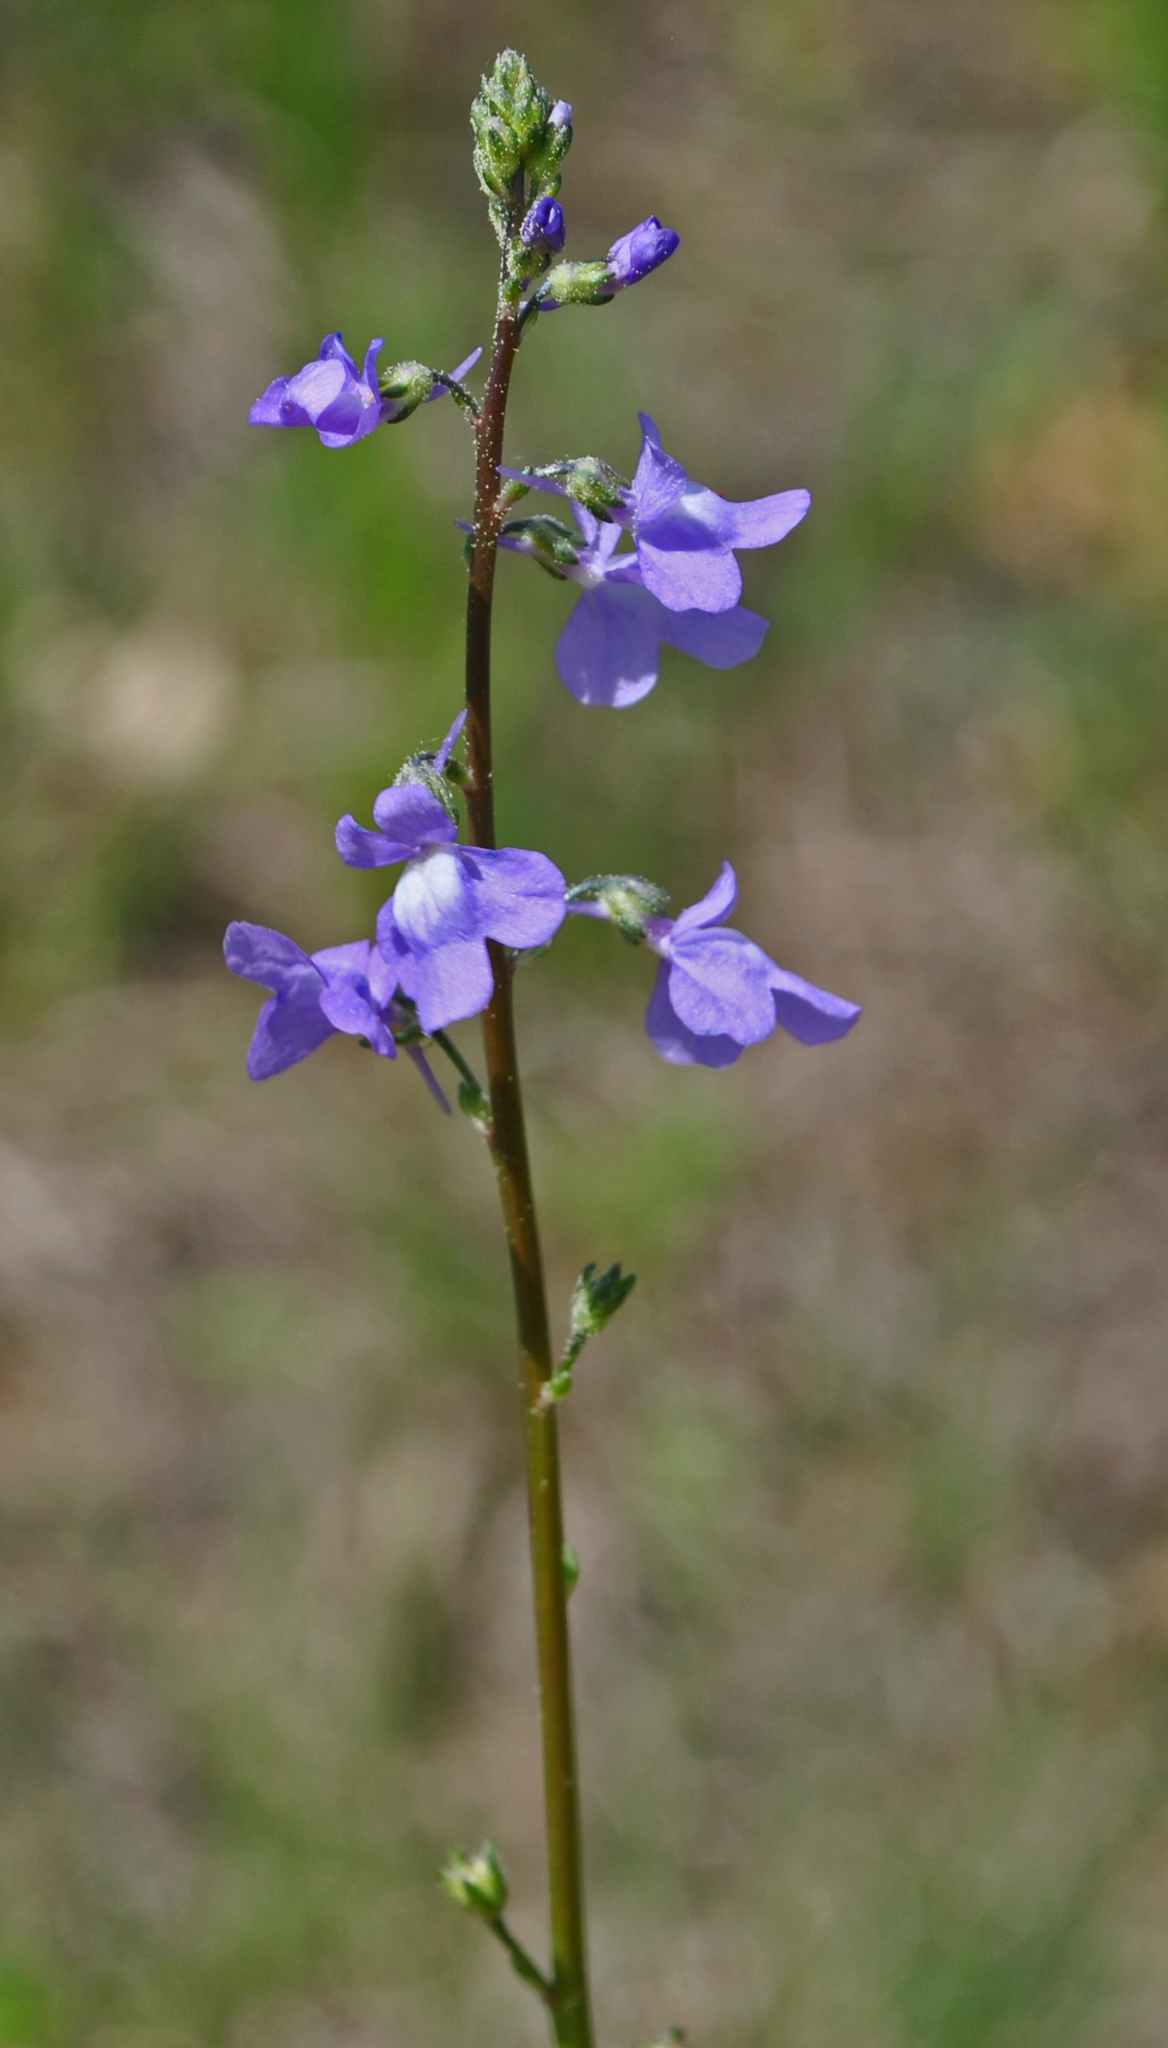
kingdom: Plantae
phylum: Tracheophyta
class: Magnoliopsida
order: Lamiales
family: Plantaginaceae
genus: Nuttallanthus
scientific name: Nuttallanthus canadensis
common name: Blue toadflax
